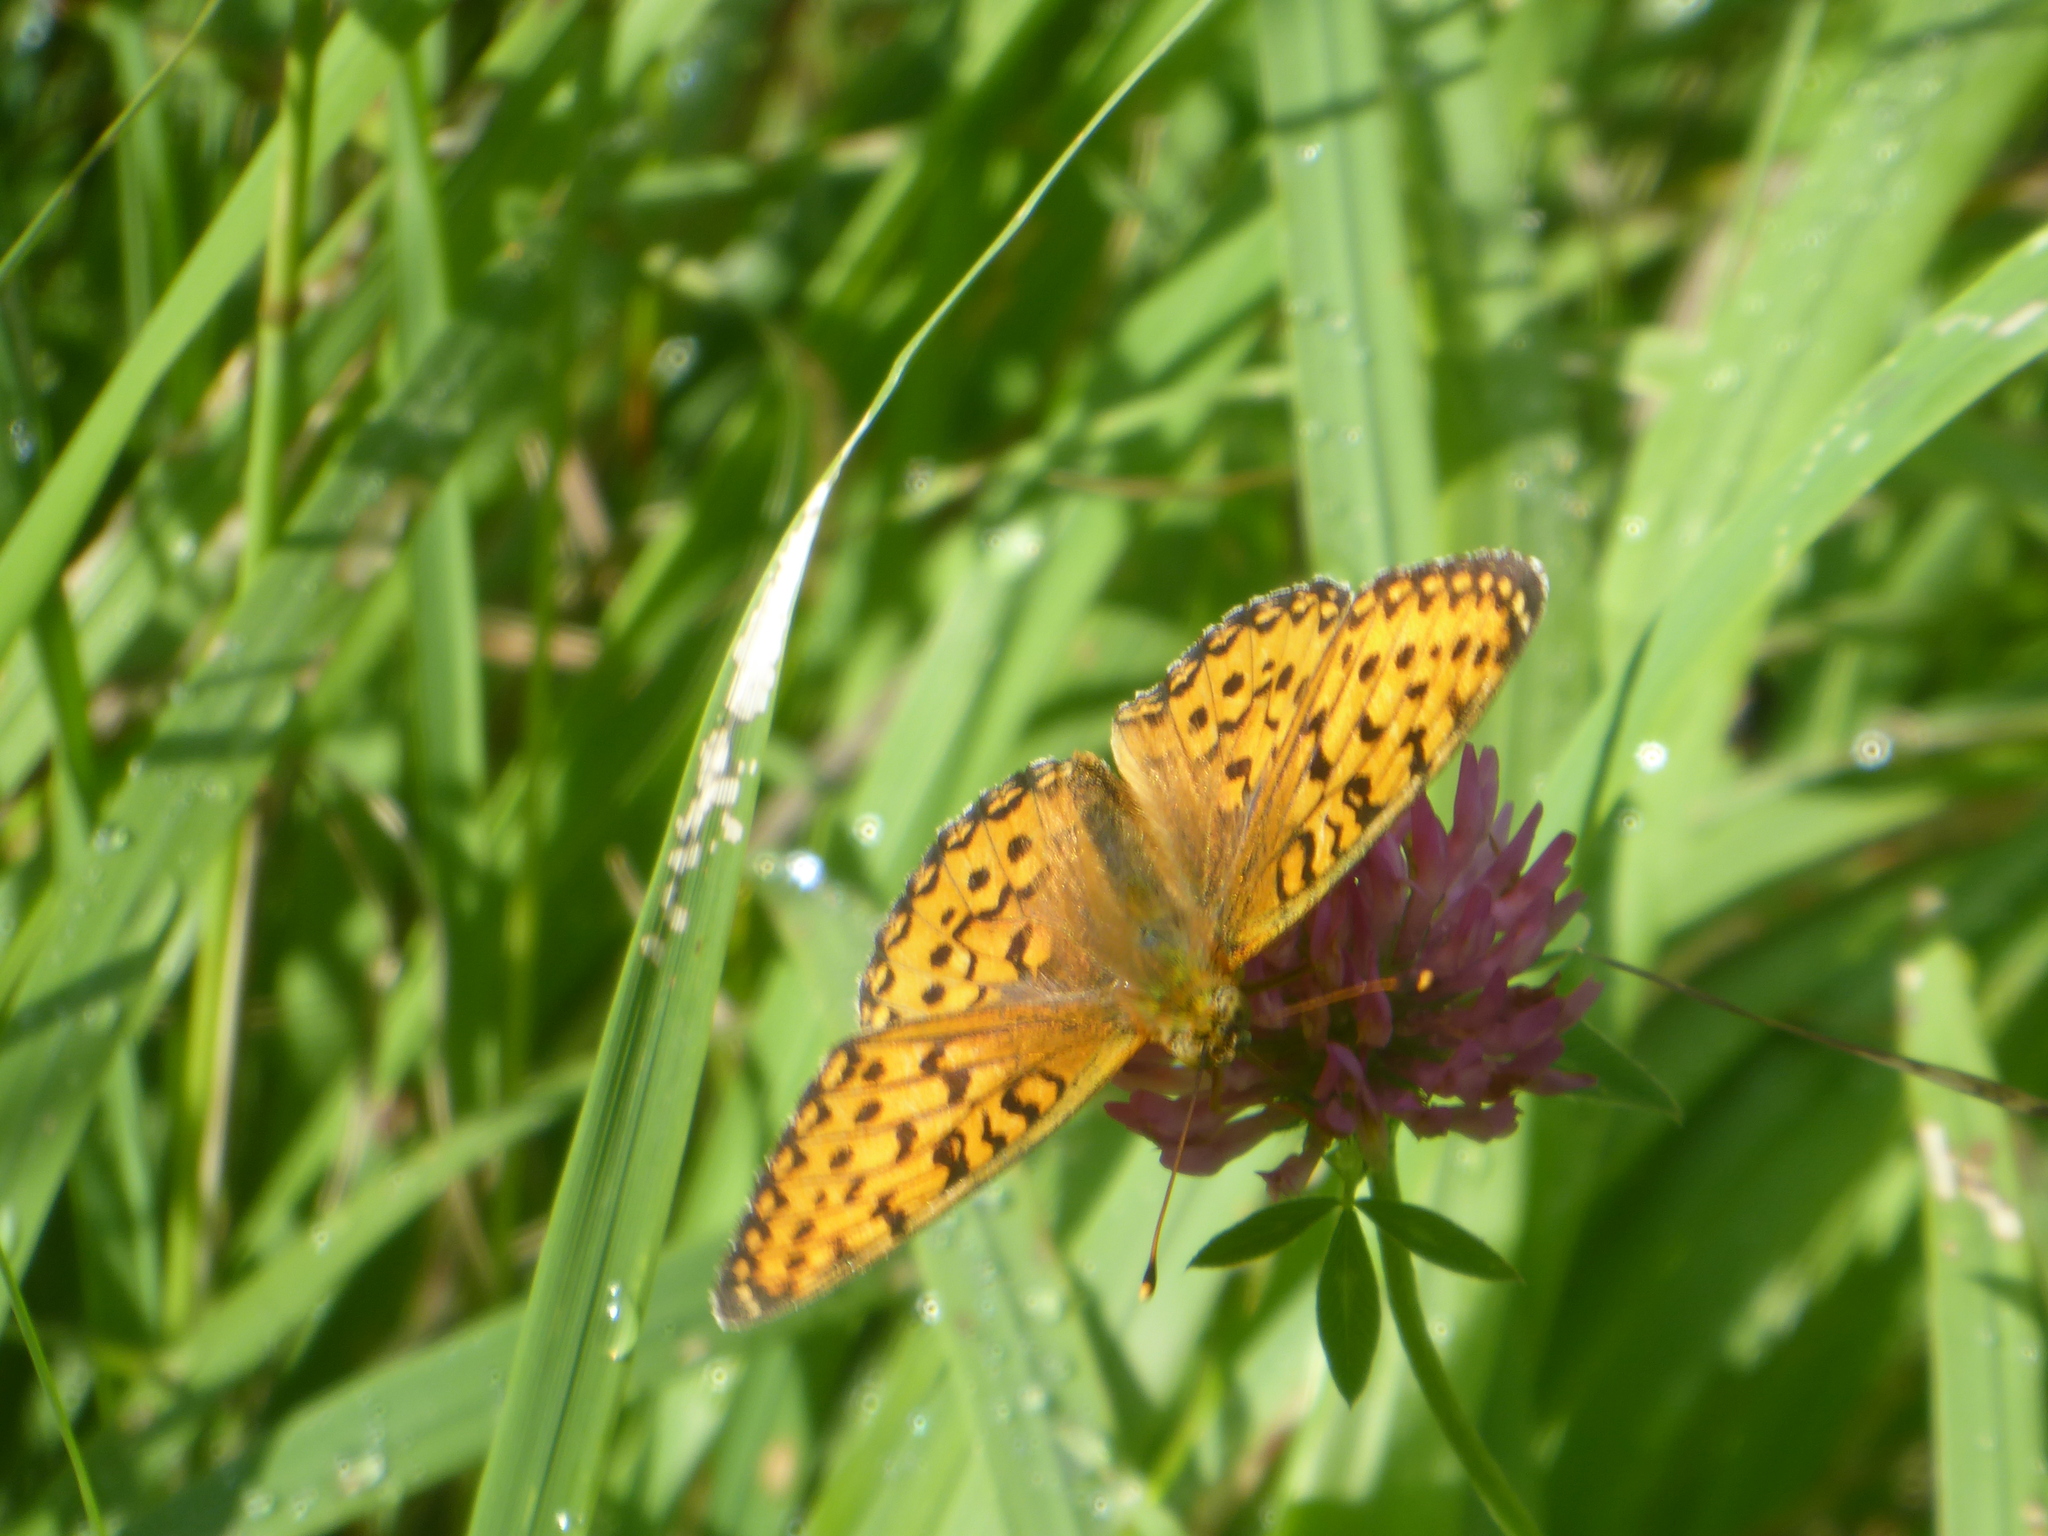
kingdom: Animalia
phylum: Arthropoda
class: Insecta
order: Lepidoptera
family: Nymphalidae
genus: Speyeria
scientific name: Speyeria aglaja
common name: Dark green fritillary
